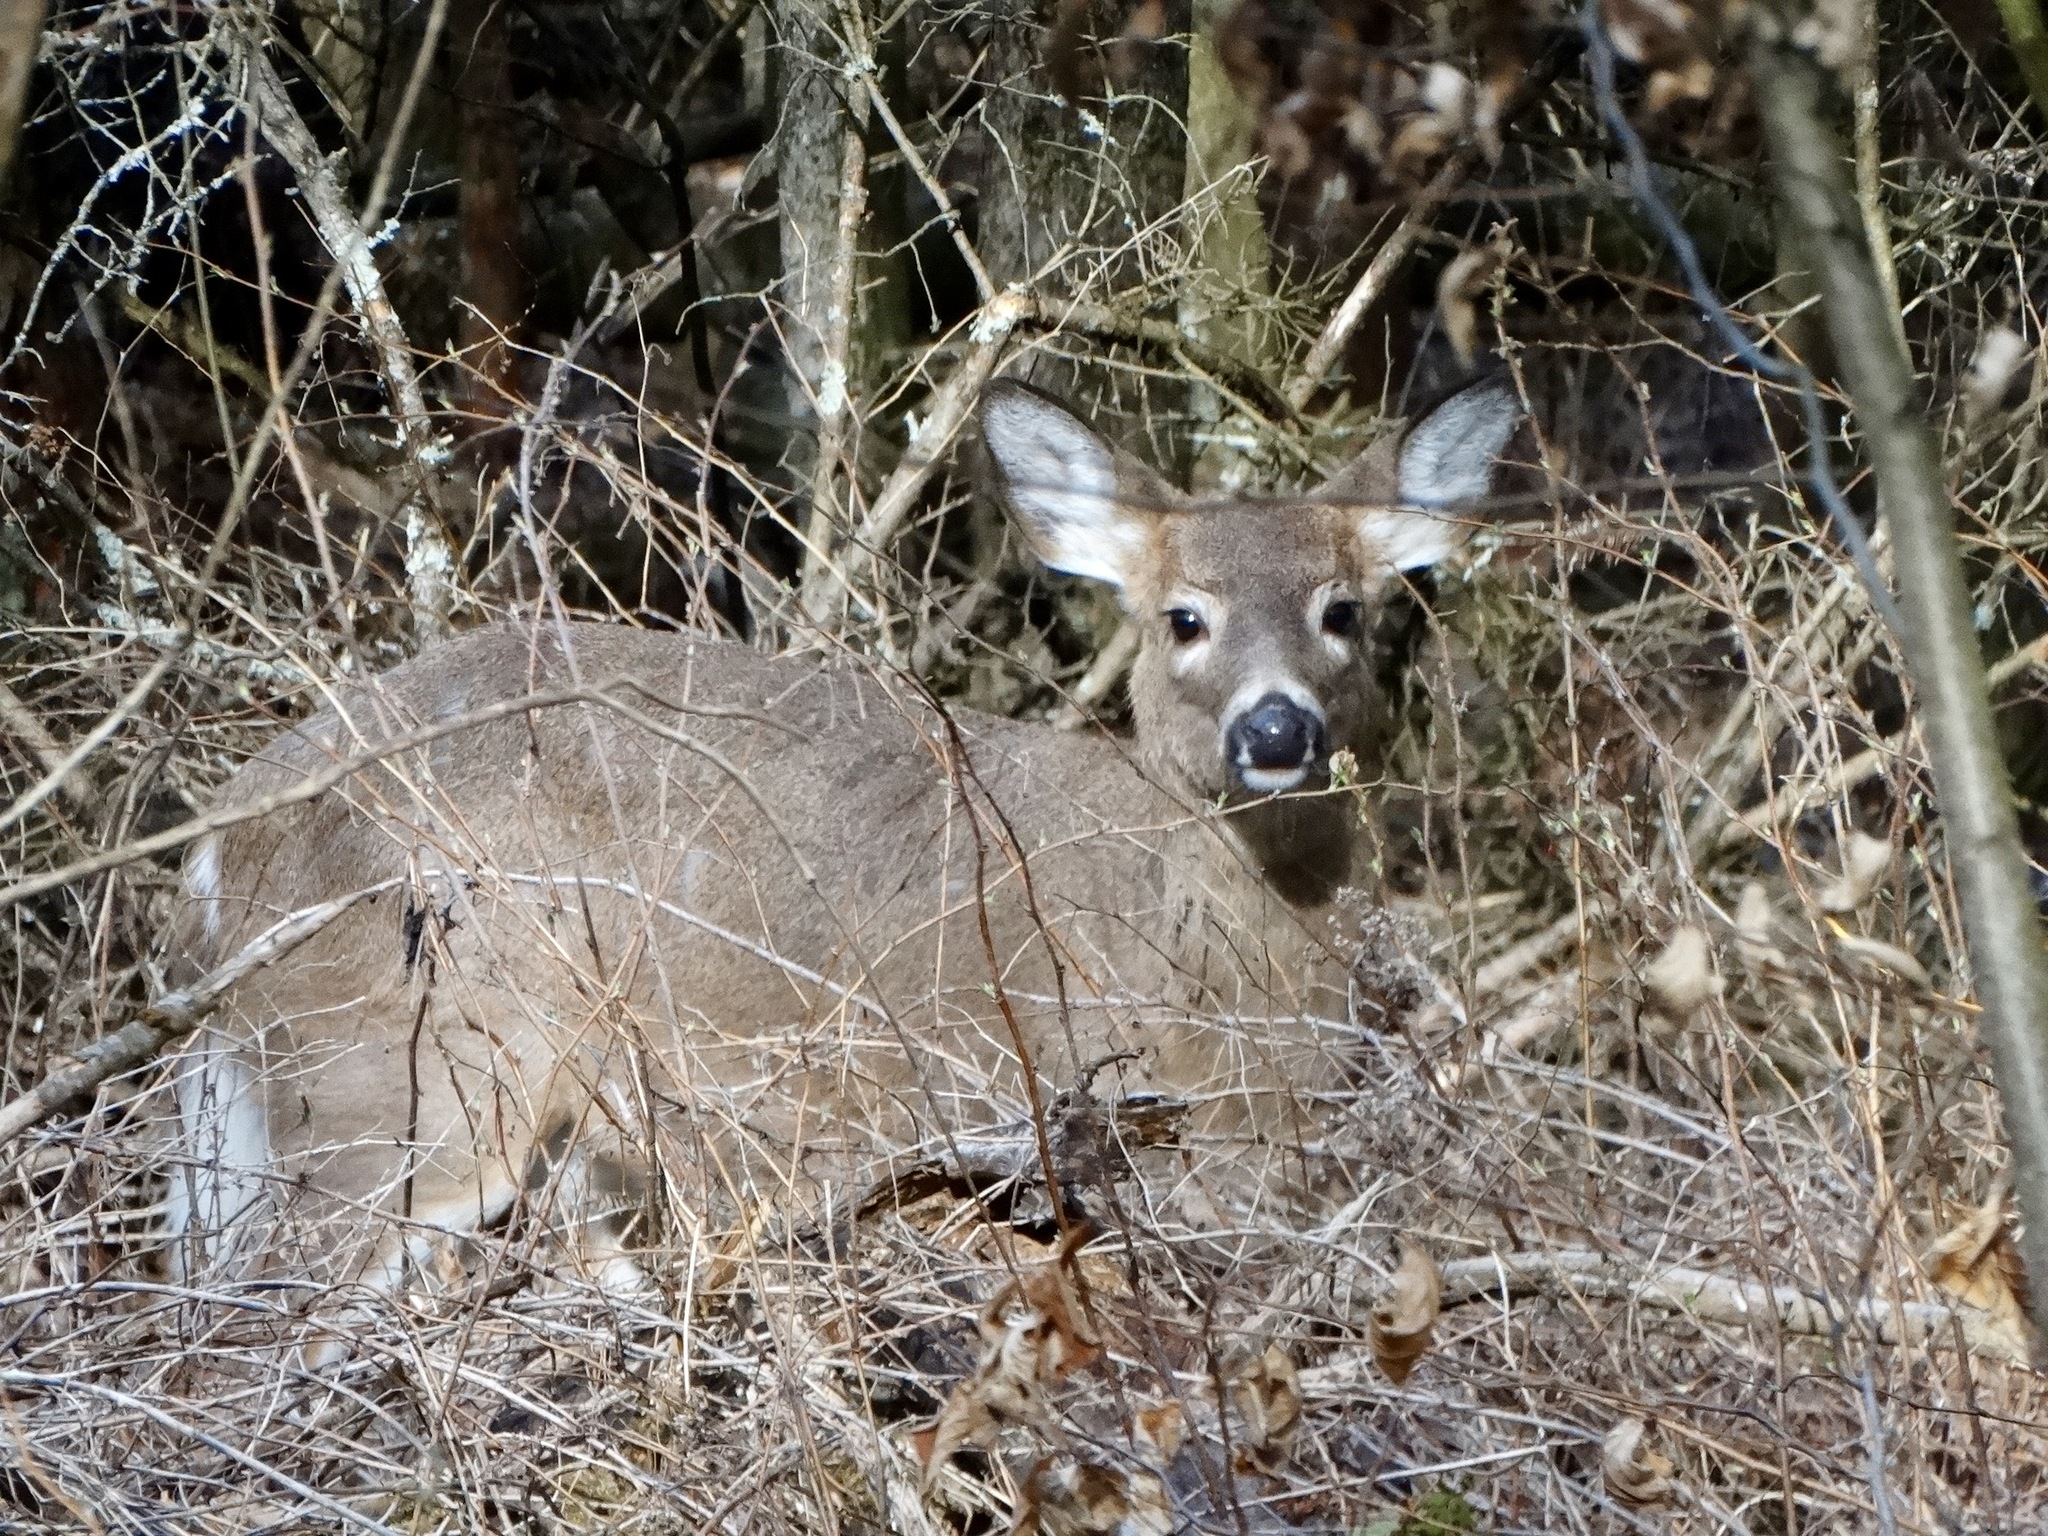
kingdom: Animalia
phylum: Chordata
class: Mammalia
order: Artiodactyla
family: Cervidae
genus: Odocoileus
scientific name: Odocoileus virginianus
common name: White-tailed deer
